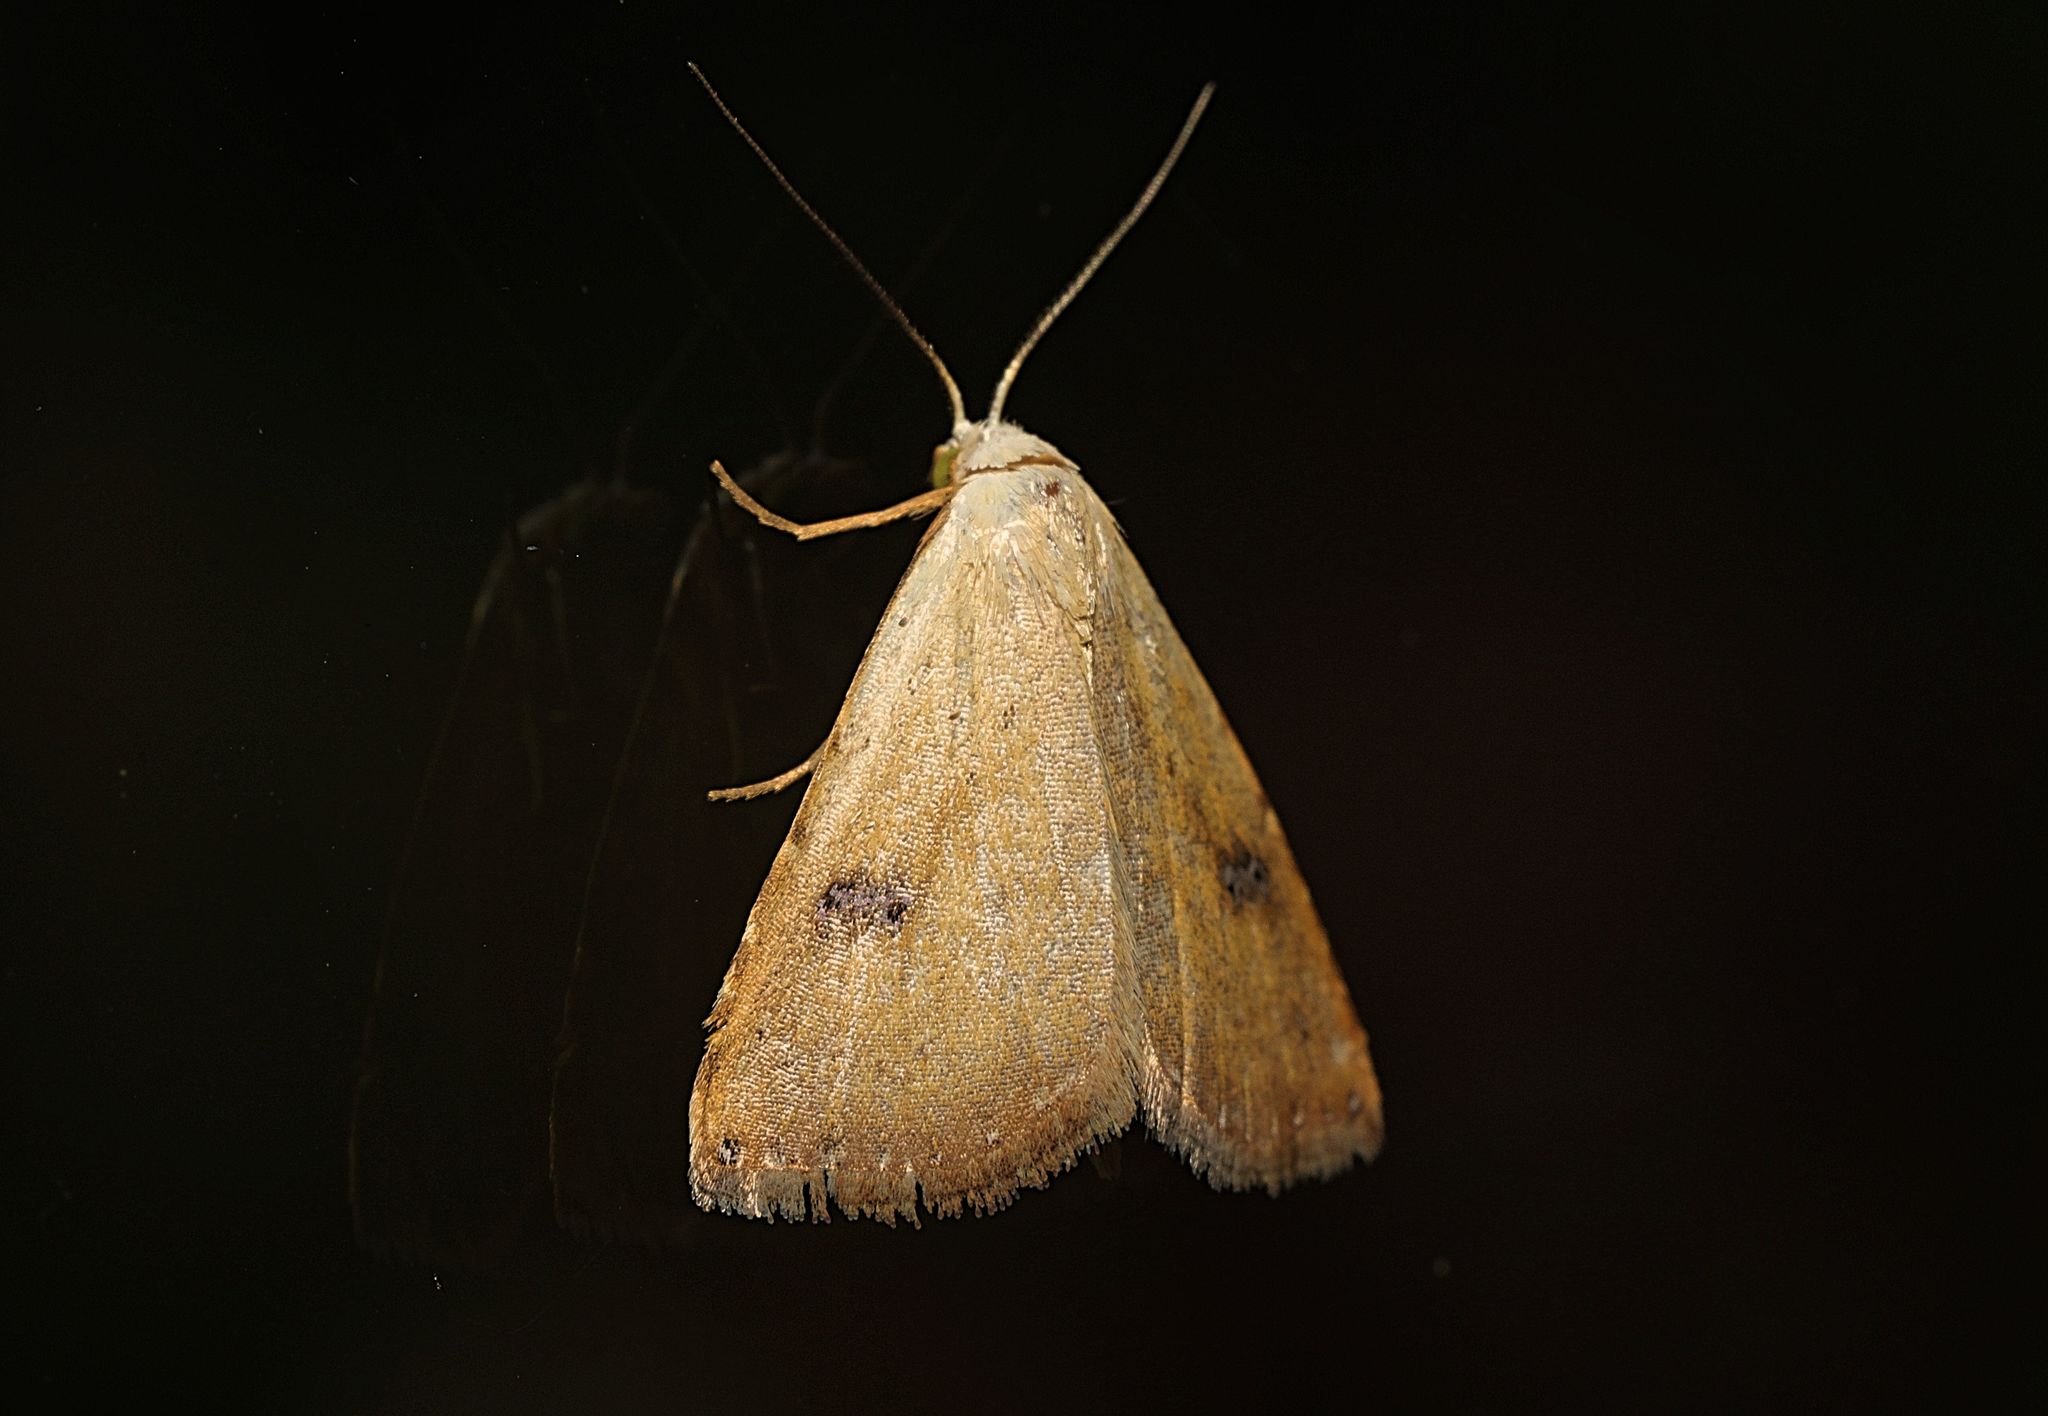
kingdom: Animalia
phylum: Arthropoda
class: Insecta
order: Lepidoptera
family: Erebidae
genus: Rivula
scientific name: Rivula sericealis
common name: Straw dot
